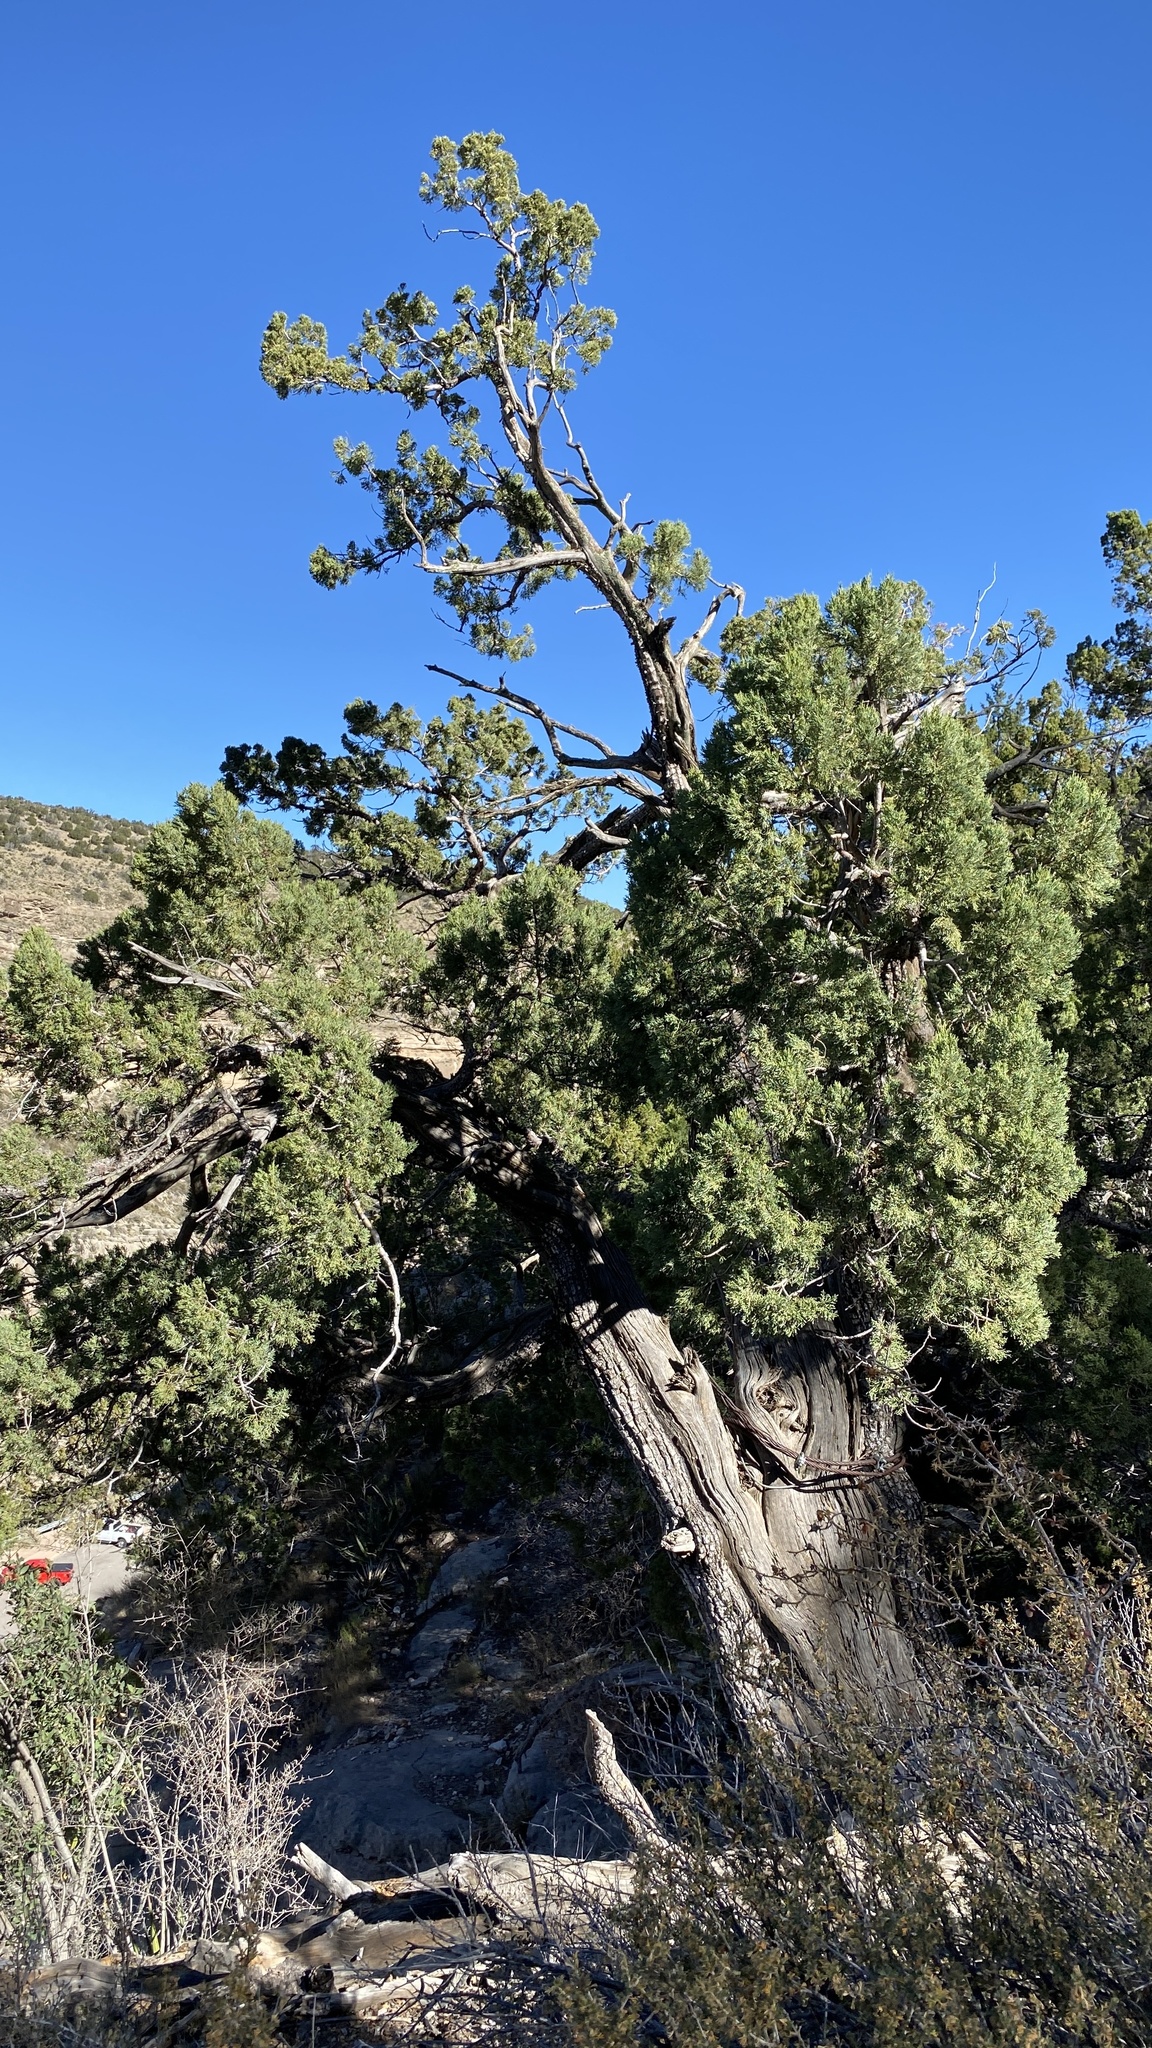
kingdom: Plantae
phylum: Tracheophyta
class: Pinopsida
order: Pinales
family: Cupressaceae
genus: Juniperus
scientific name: Juniperus monosperma
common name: One-seed juniper
